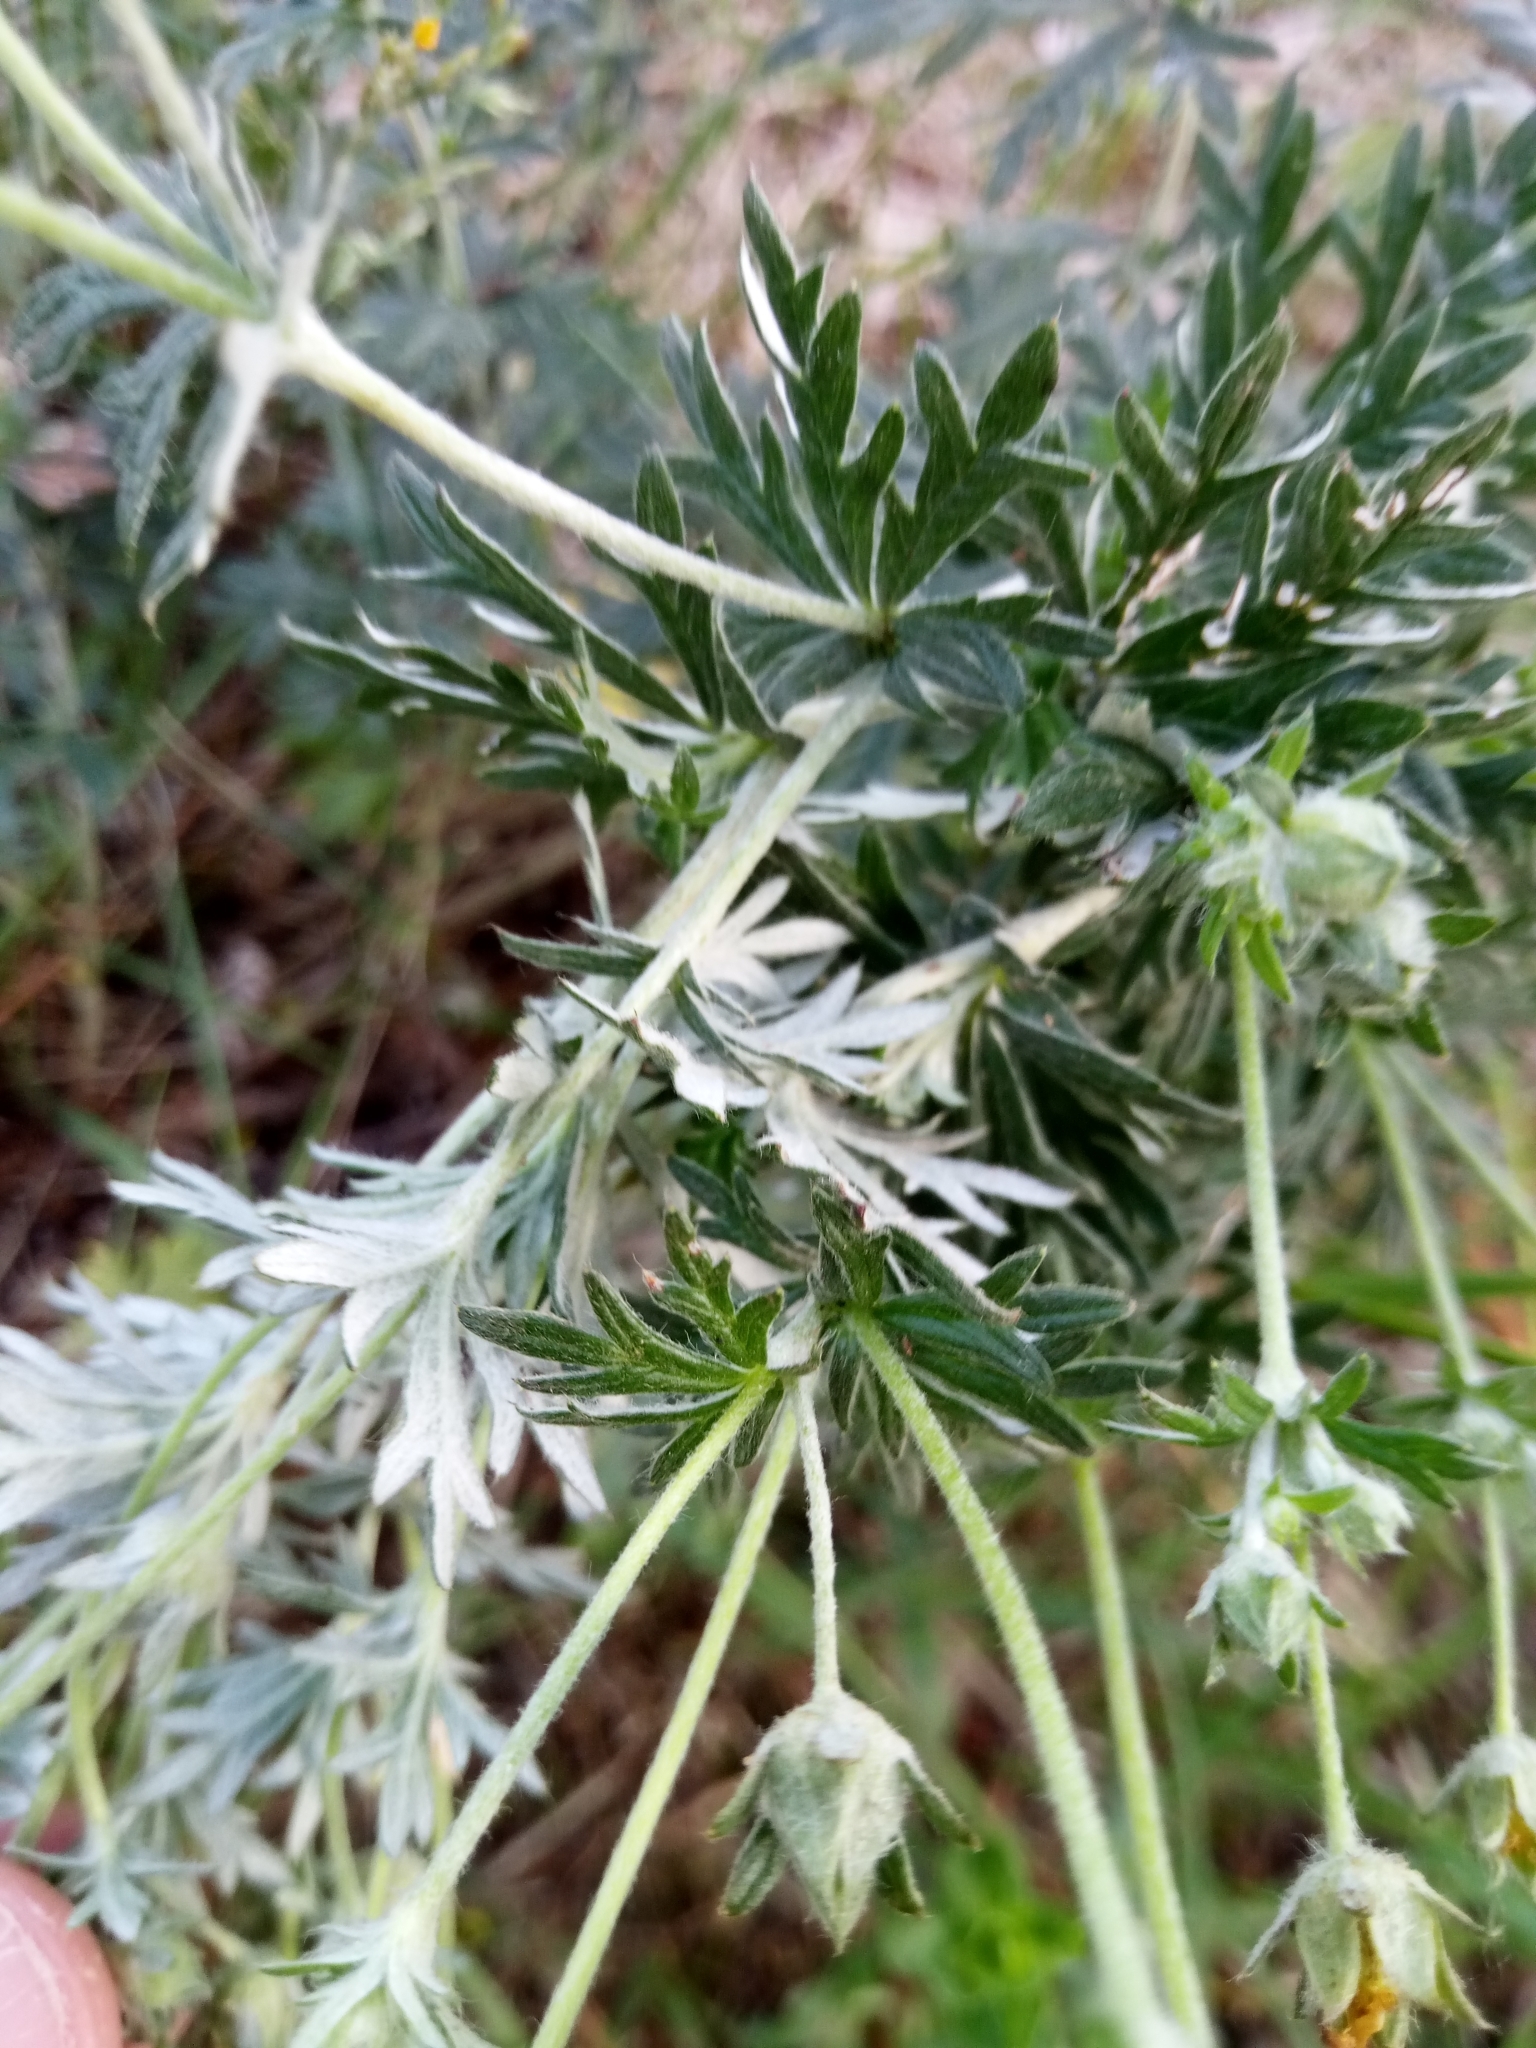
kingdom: Plantae
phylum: Tracheophyta
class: Magnoliopsida
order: Rosales
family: Rosaceae
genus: Potentilla
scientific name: Potentilla argentea
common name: Hoary cinquefoil
